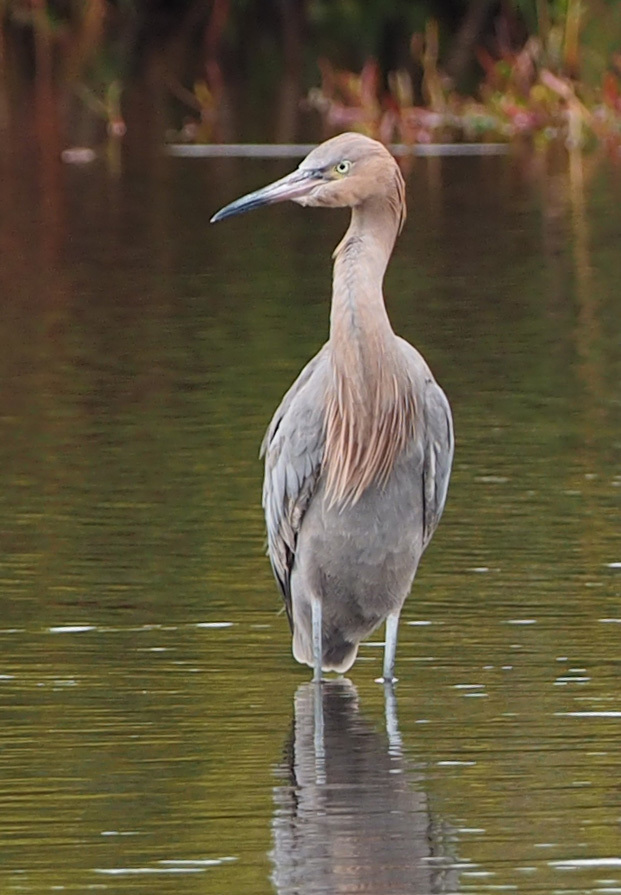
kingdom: Animalia
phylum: Chordata
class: Aves
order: Pelecaniformes
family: Ardeidae
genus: Egretta
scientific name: Egretta rufescens
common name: Reddish egret
